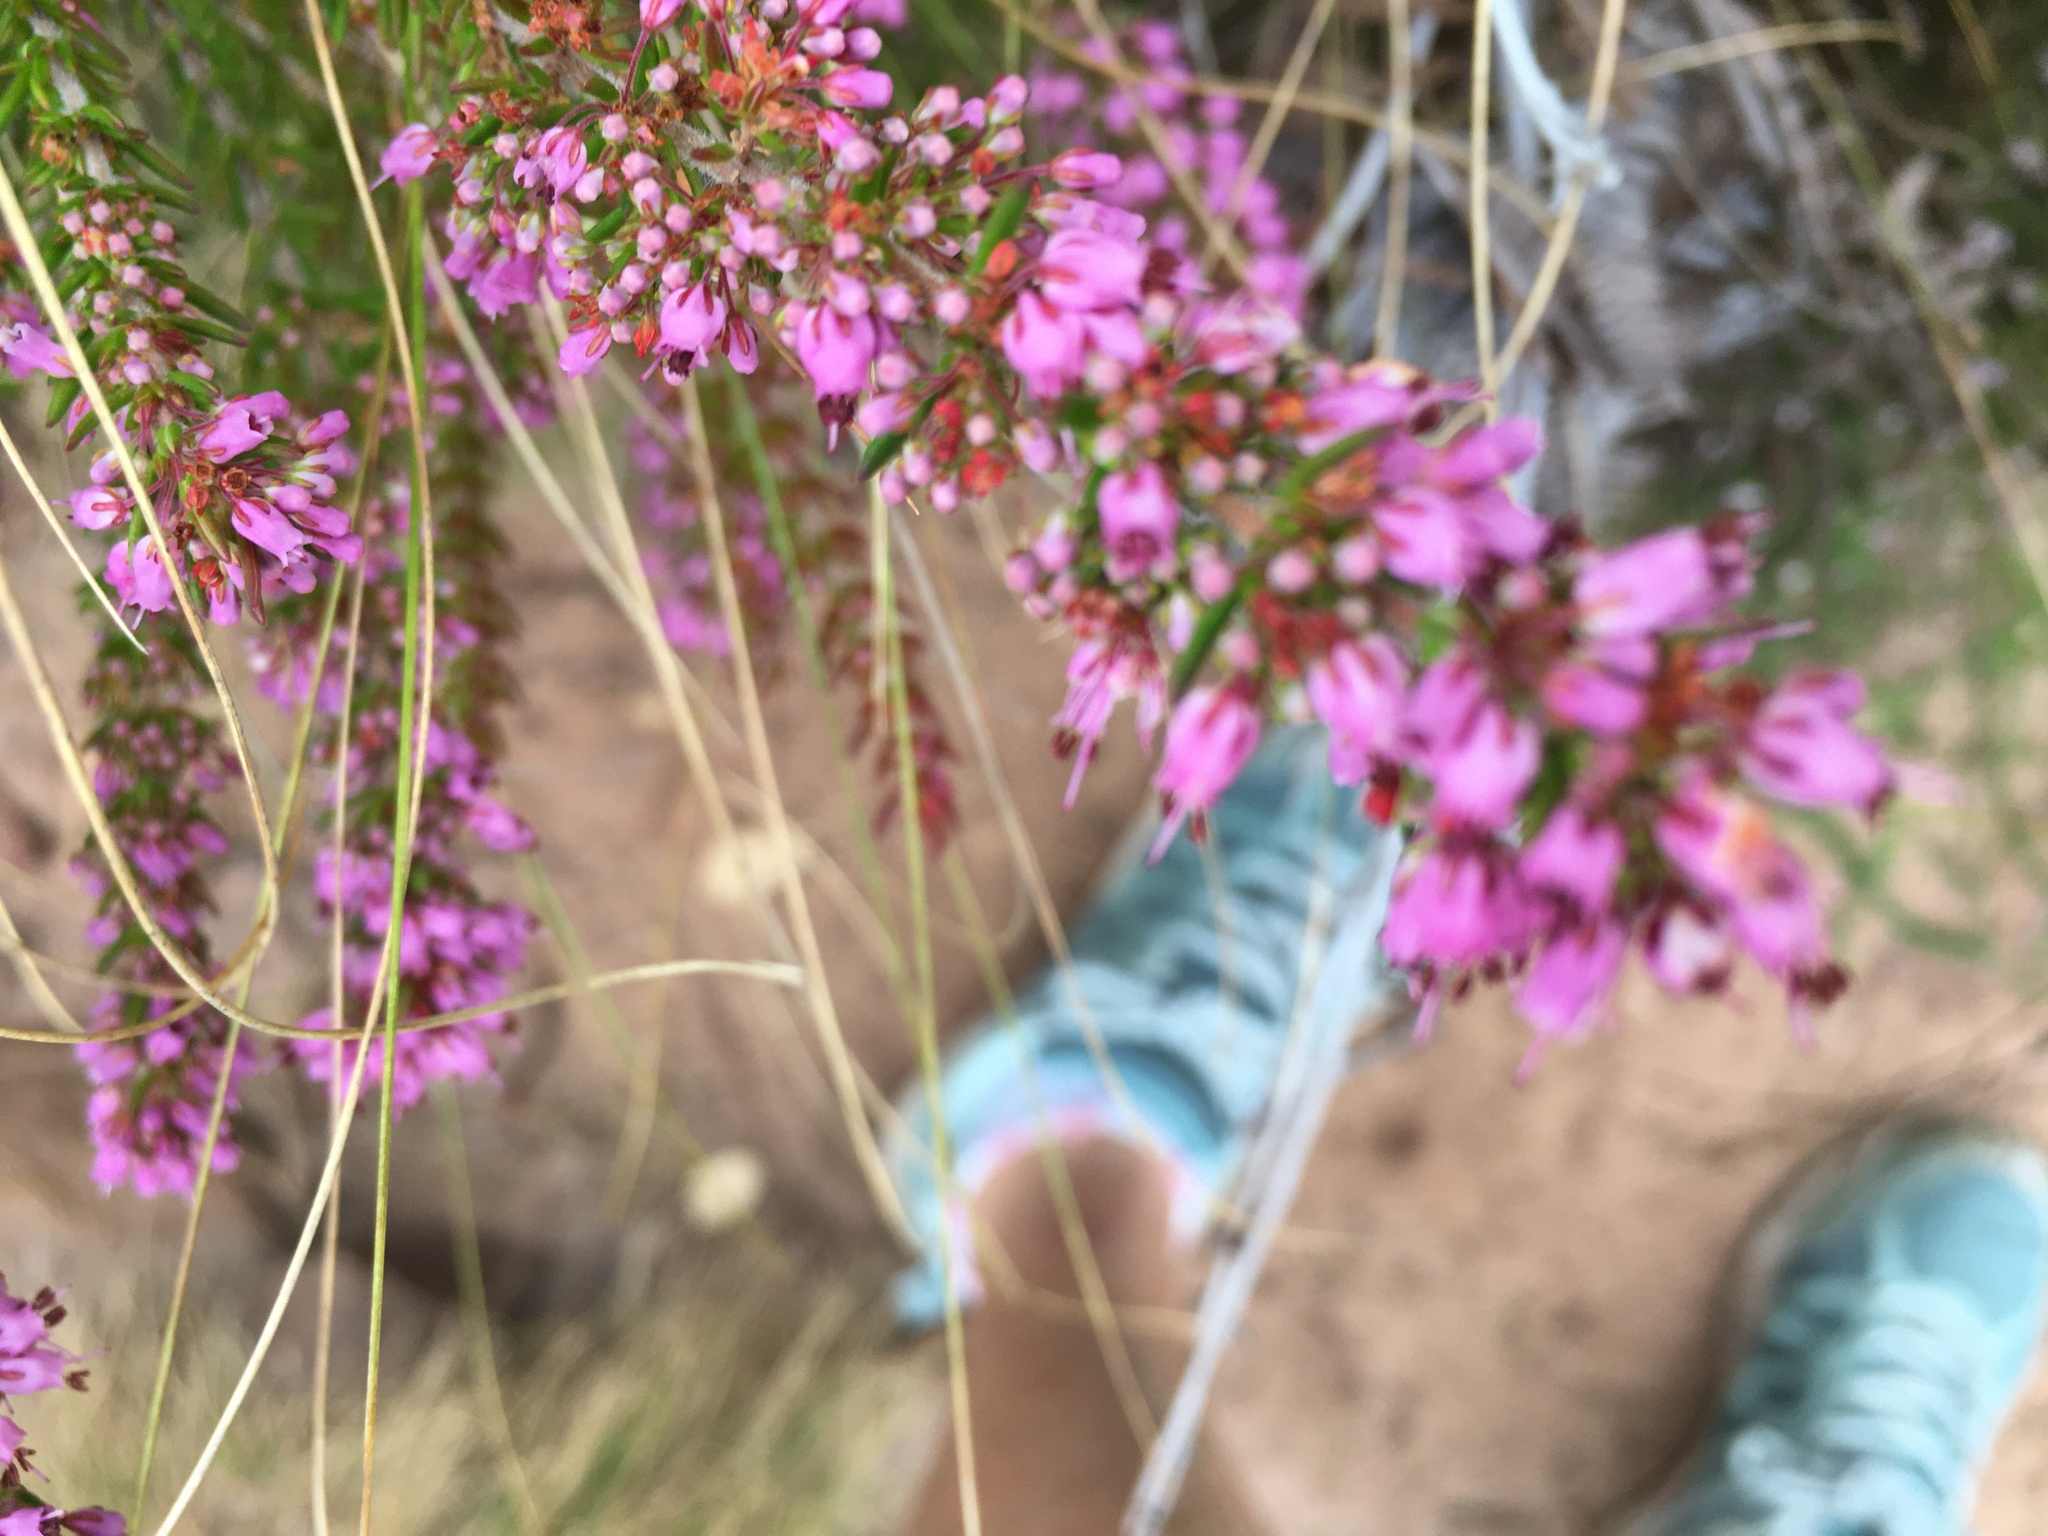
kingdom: Plantae
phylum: Tracheophyta
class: Magnoliopsida
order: Ericales
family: Ericaceae
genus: Erica
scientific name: Erica nudiflora
